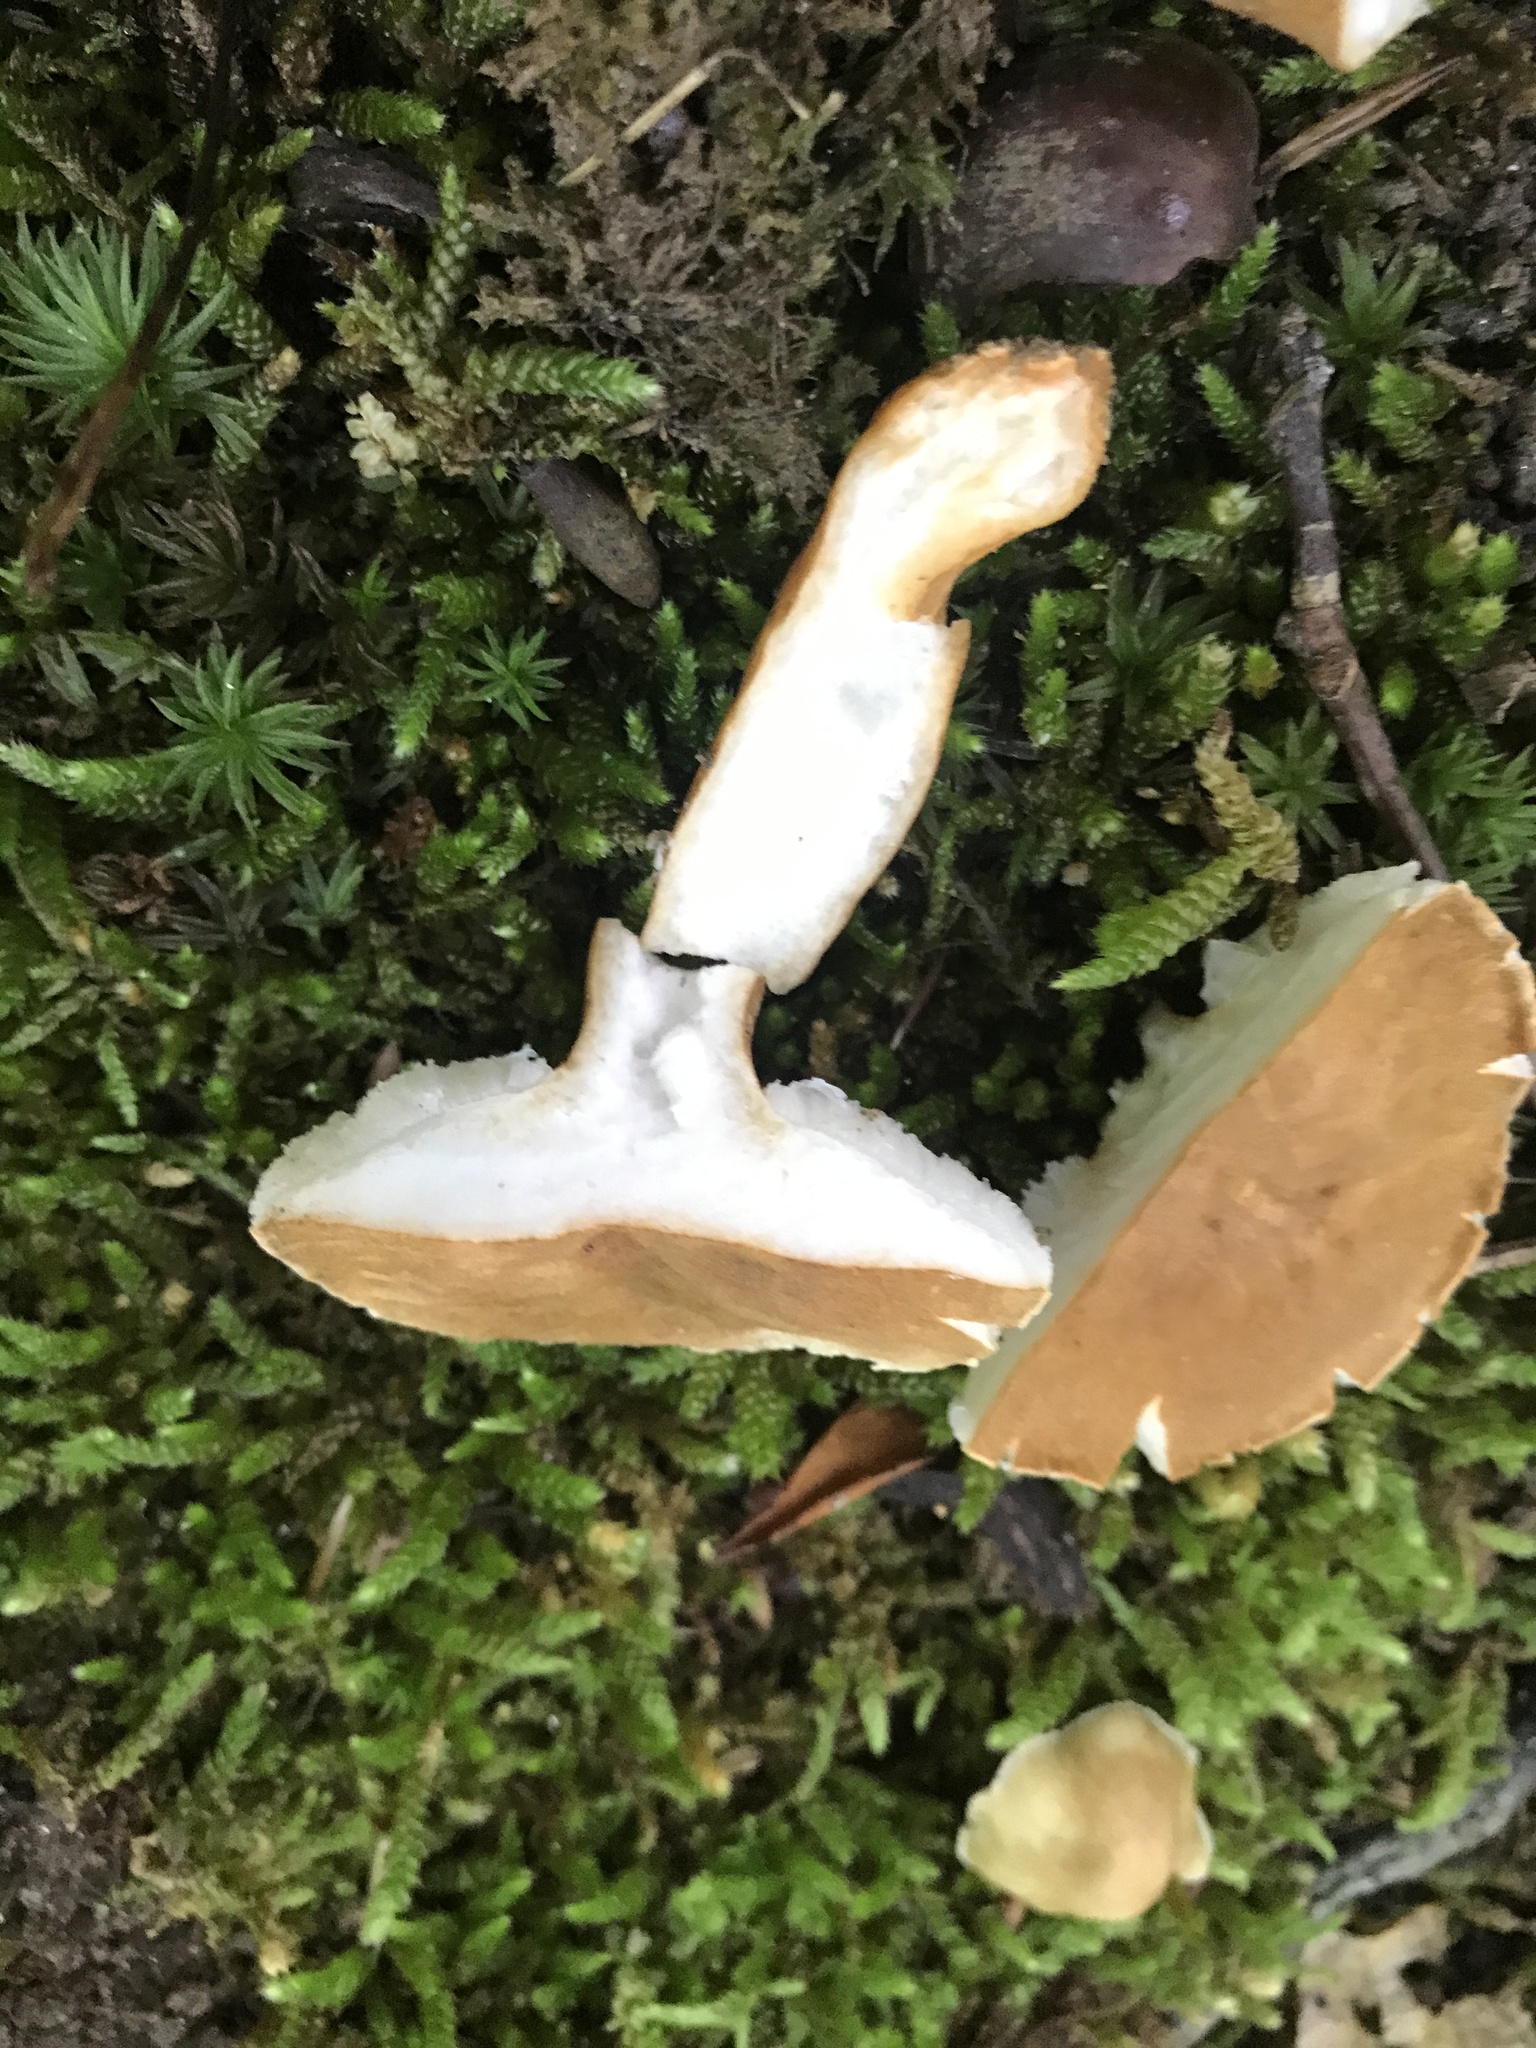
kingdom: Fungi
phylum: Basidiomycota
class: Agaricomycetes
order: Boletales
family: Gyroporaceae
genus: Gyroporus
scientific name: Gyroporus castaneus
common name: Chestnut bolete
